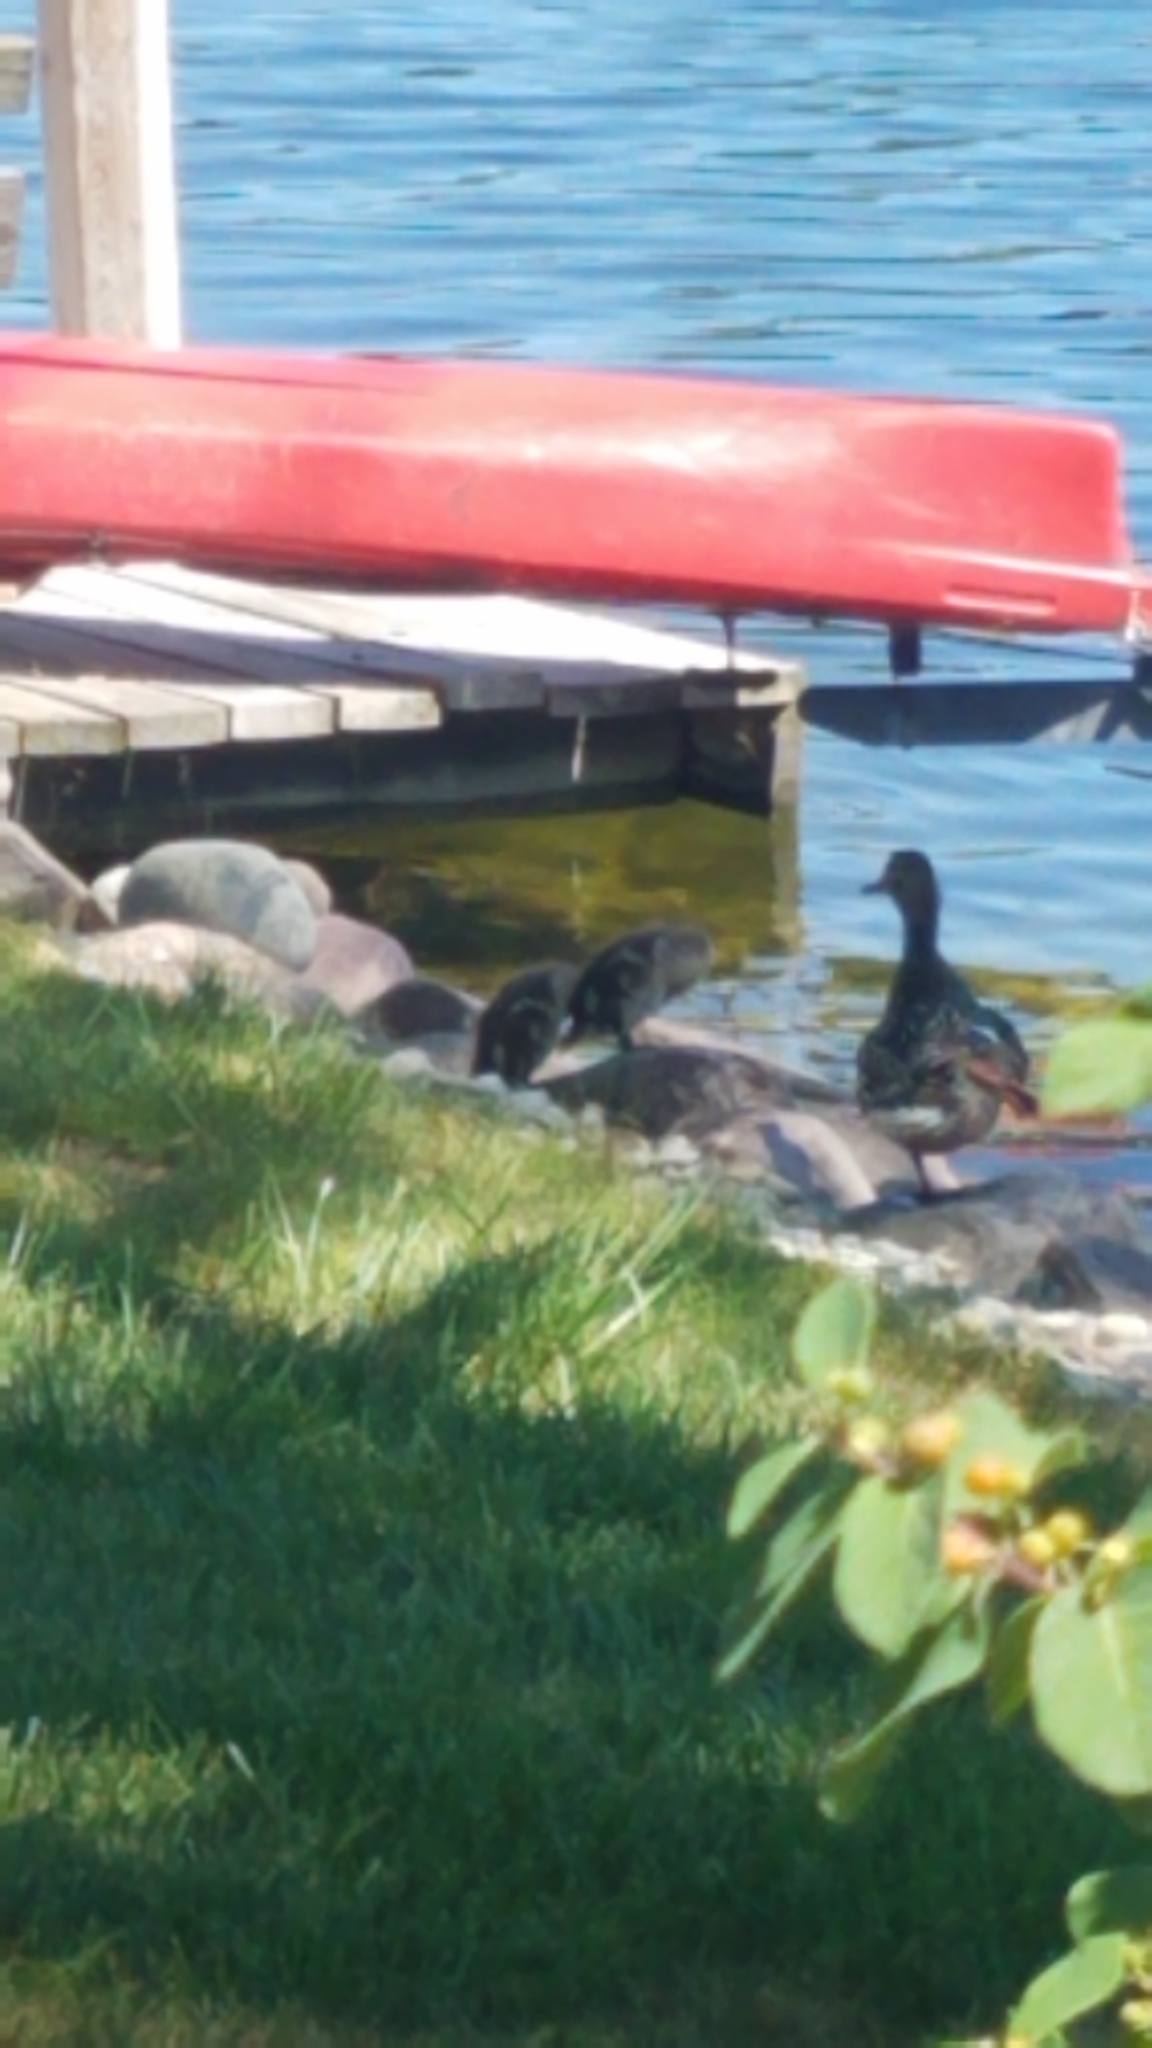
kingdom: Animalia
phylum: Chordata
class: Aves
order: Anseriformes
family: Anatidae
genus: Anas
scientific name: Anas platyrhynchos
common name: Mallard
